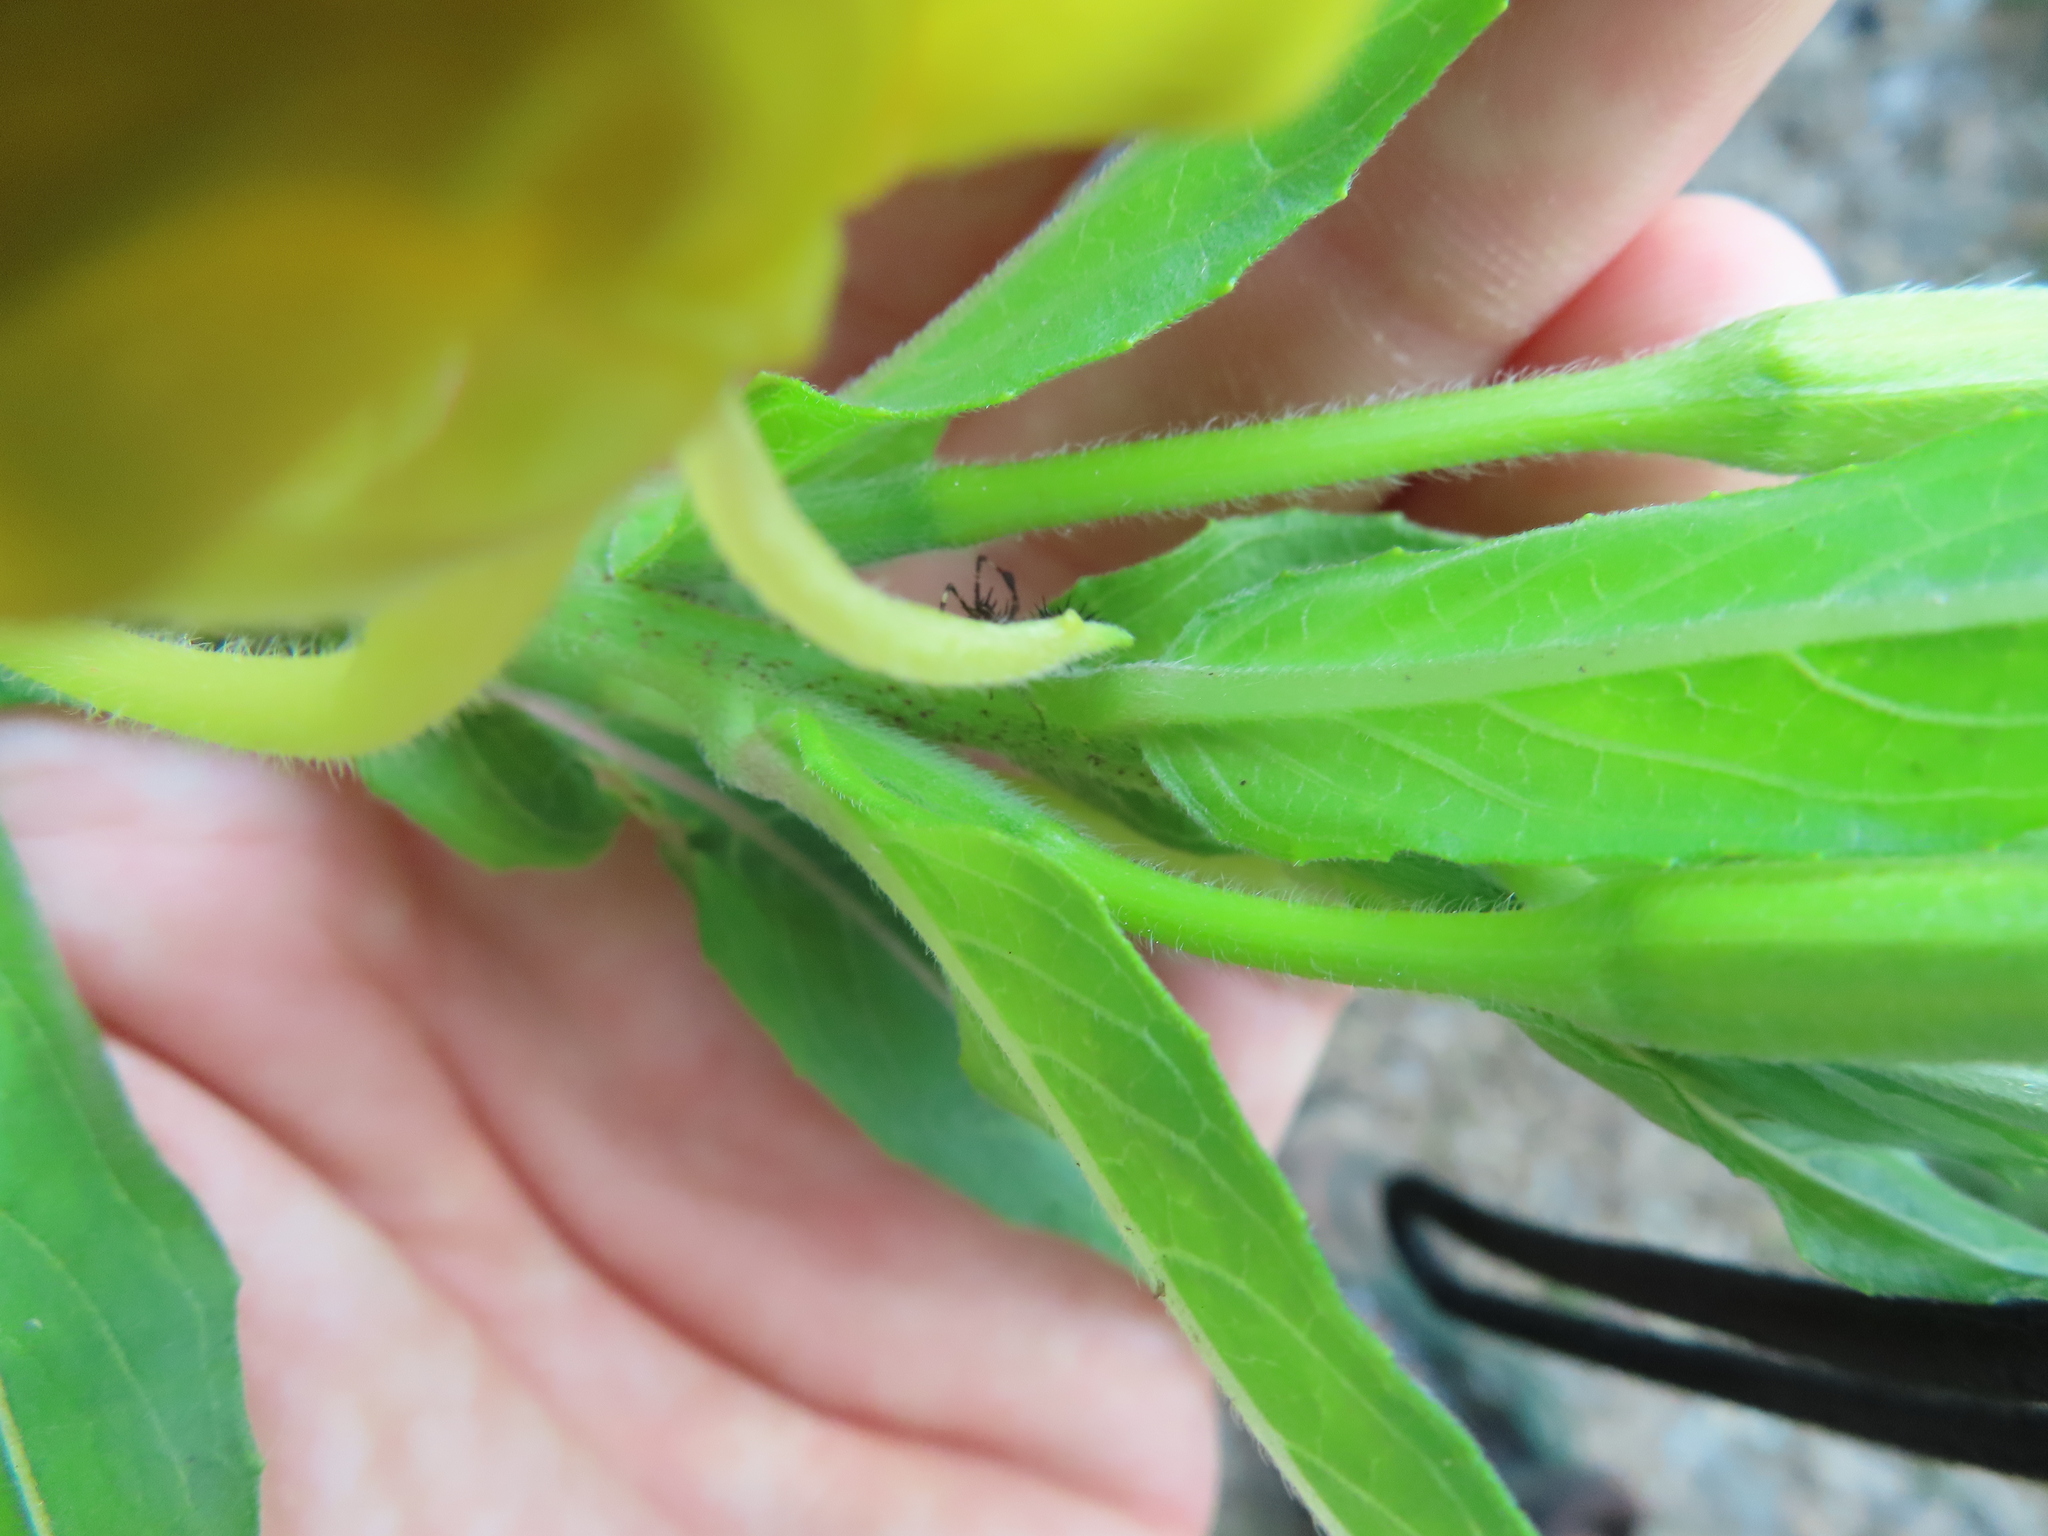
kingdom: Plantae
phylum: Tracheophyta
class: Magnoliopsida
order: Myrtales
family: Onagraceae
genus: Oenothera
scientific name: Oenothera biennis
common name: Common evening-primrose
